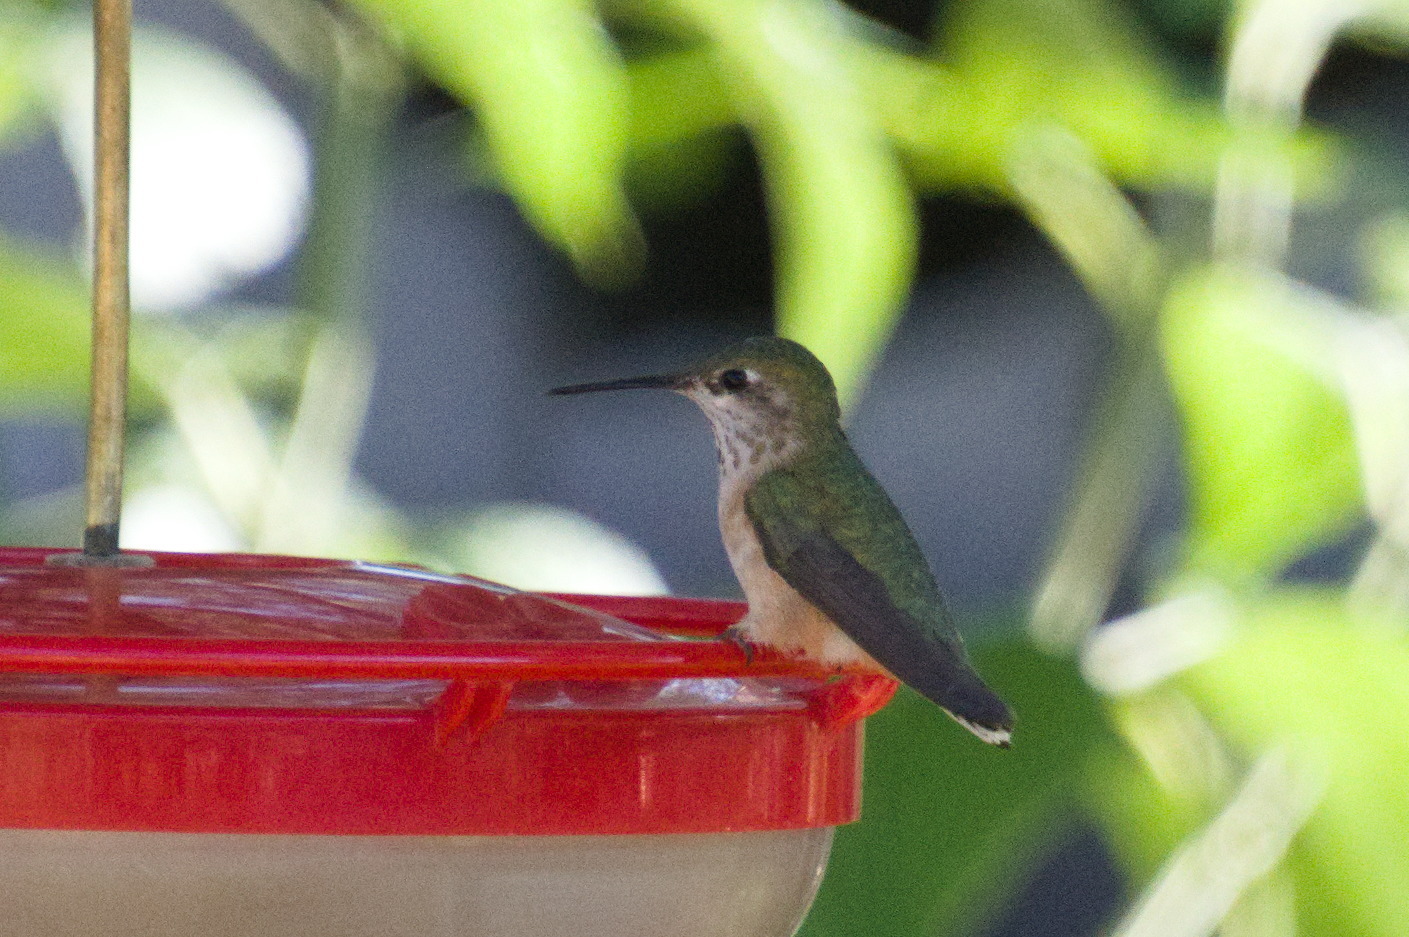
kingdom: Animalia
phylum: Chordata
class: Aves
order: Apodiformes
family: Trochilidae
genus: Selasphorus
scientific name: Selasphorus calliope
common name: Calliope hummingbird
